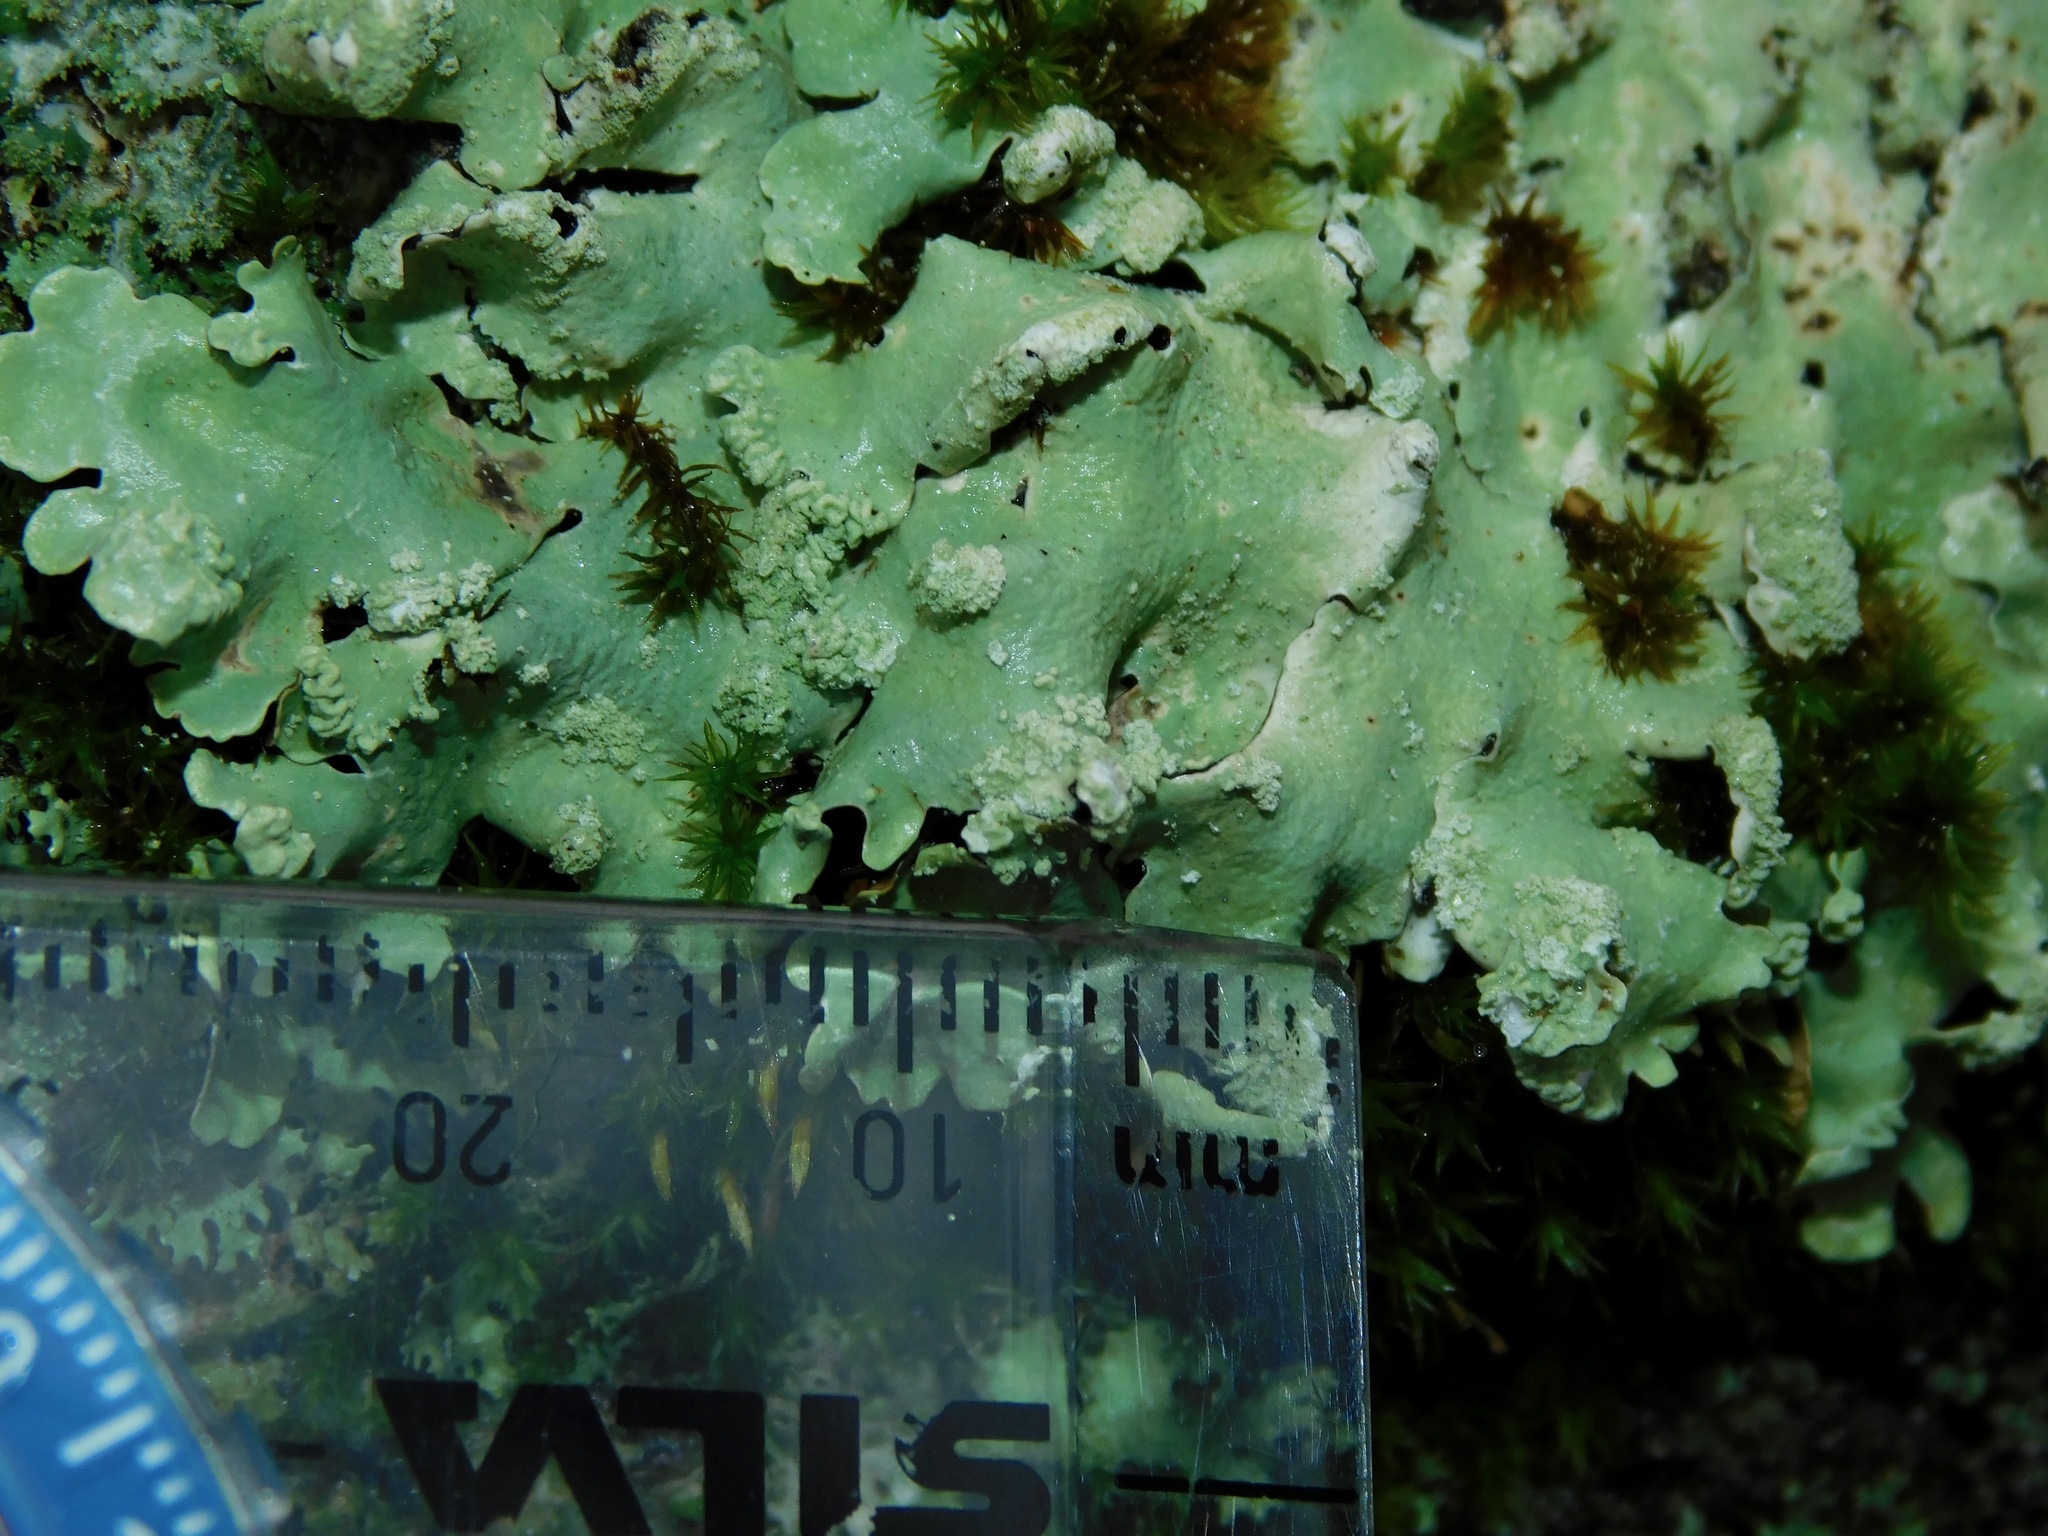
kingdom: Fungi
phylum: Ascomycota
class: Lecanoromycetes
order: Lecanorales
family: Parmeliaceae
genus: Flavoparmelia
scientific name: Flavoparmelia caperata
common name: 40-mile per hour lichen
